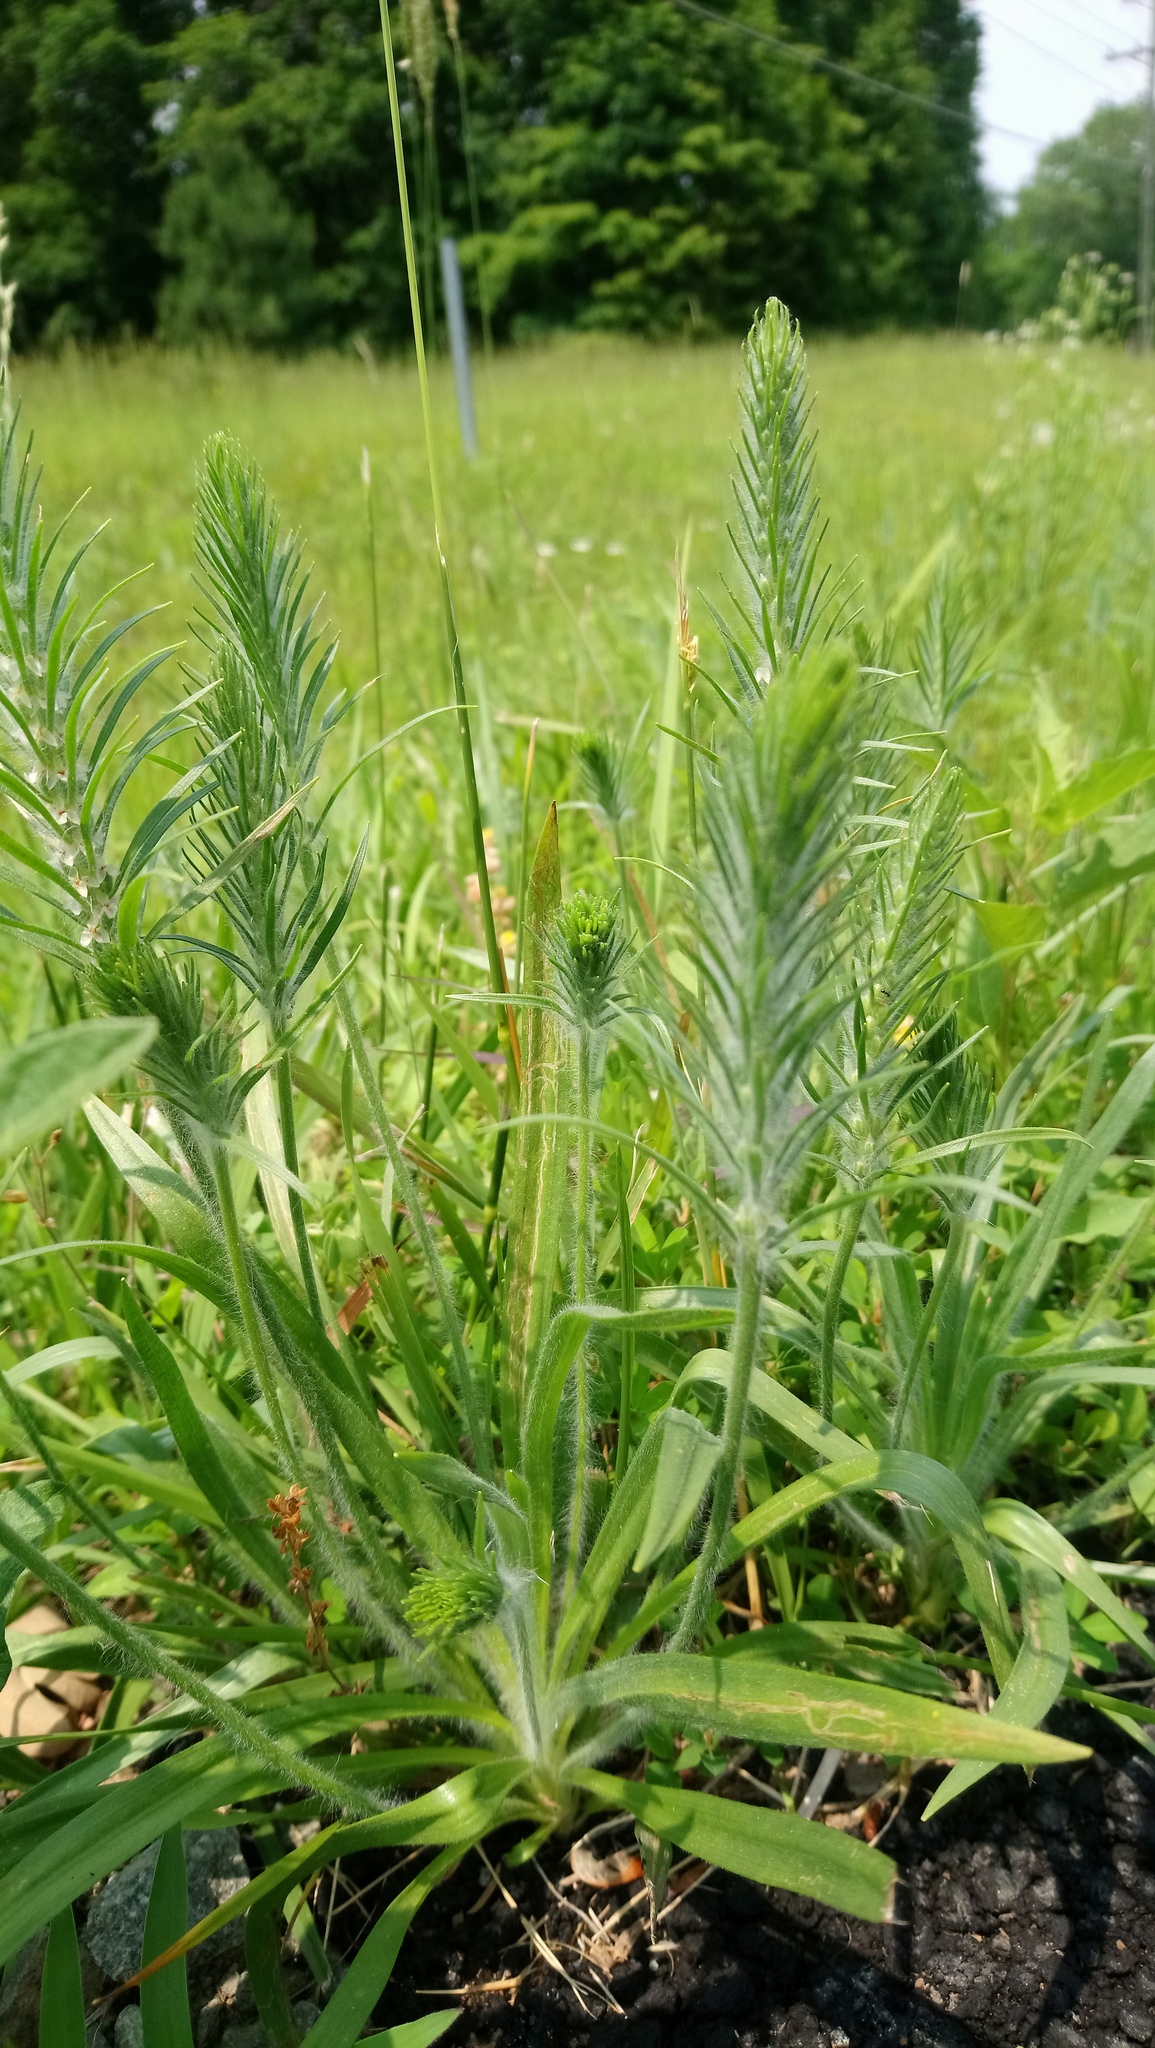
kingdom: Plantae
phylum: Tracheophyta
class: Magnoliopsida
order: Lamiales
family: Plantaginaceae
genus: Plantago
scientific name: Plantago aristata
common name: Bracted plantain
